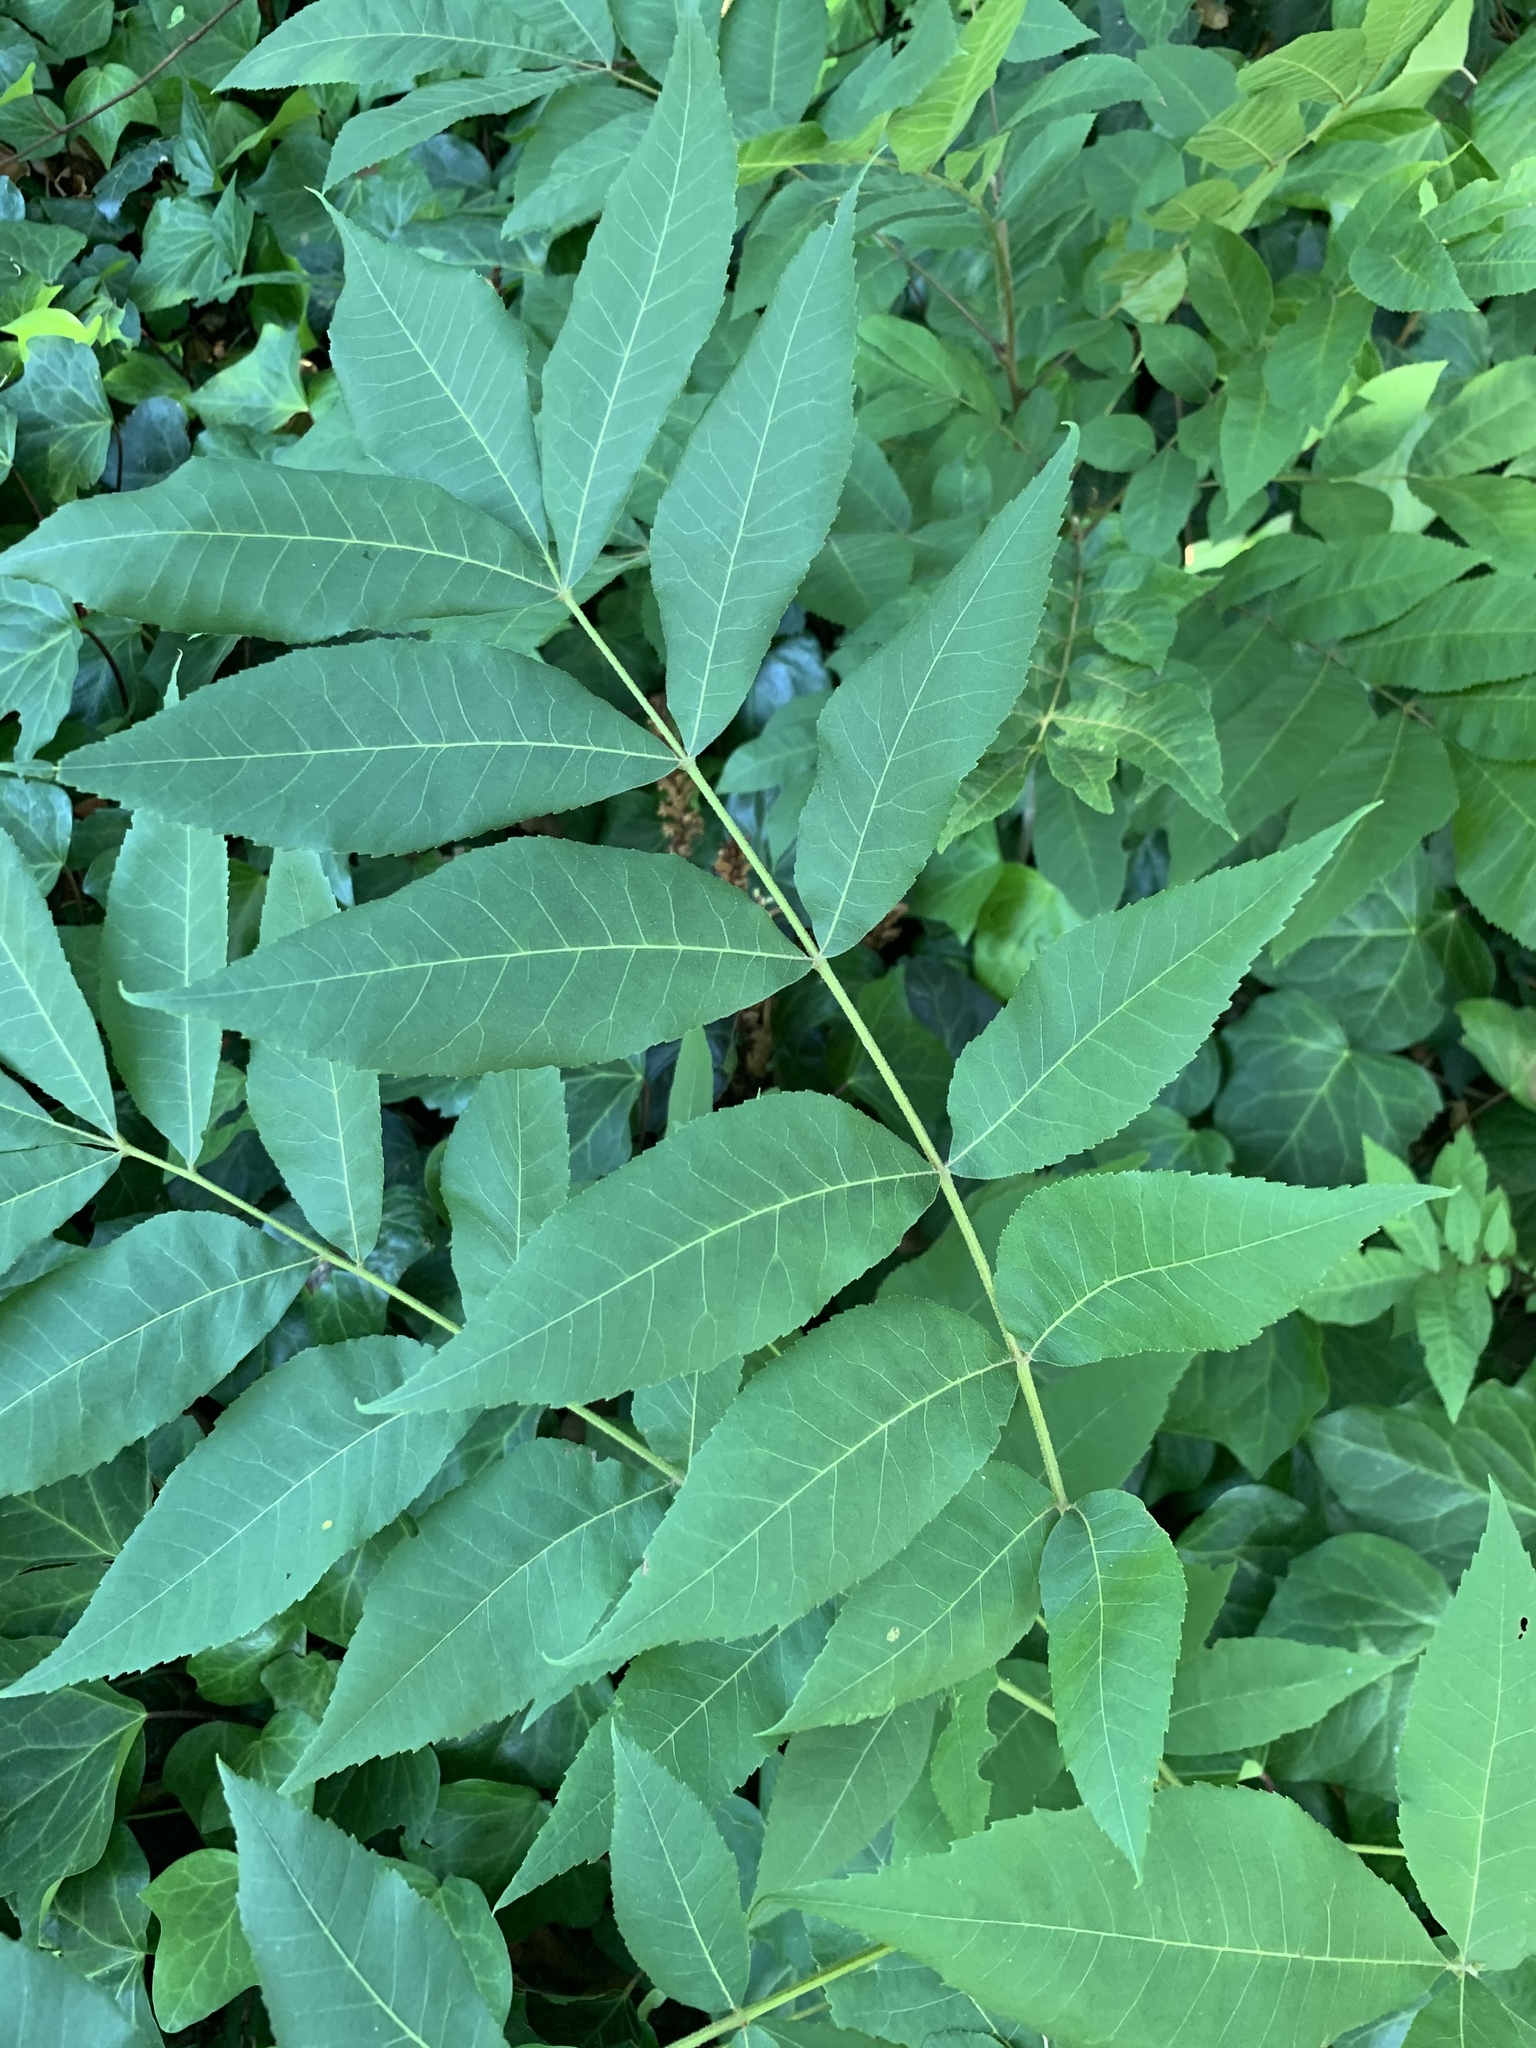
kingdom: Plantae
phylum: Tracheophyta
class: Magnoliopsida
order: Fagales
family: Juglandaceae
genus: Carya
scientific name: Carya illinoinensis
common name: Pecan
